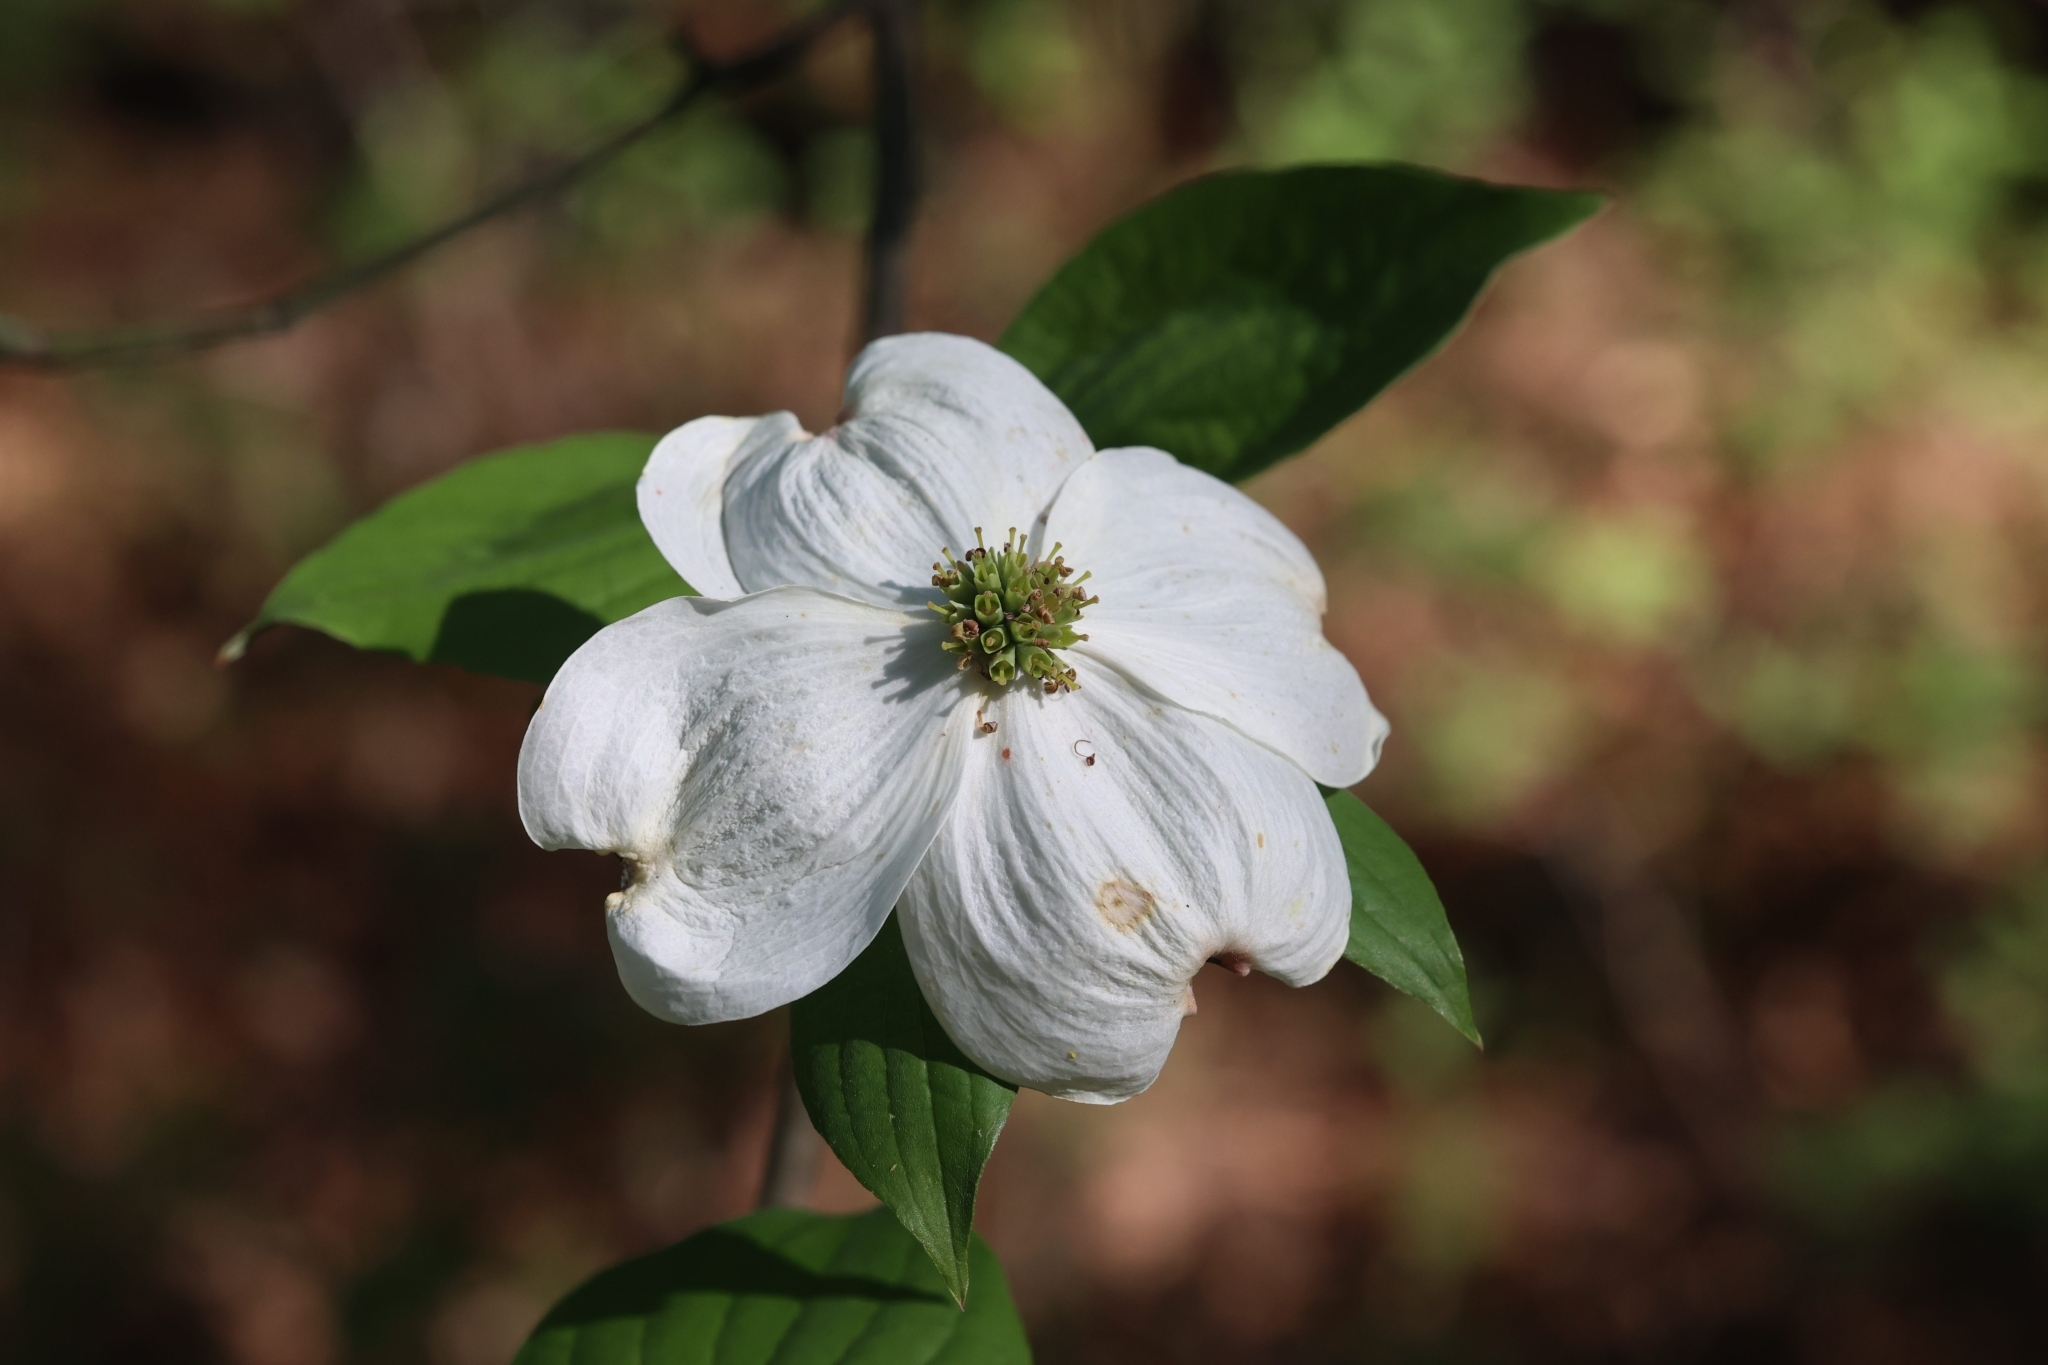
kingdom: Plantae
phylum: Tracheophyta
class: Magnoliopsida
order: Cornales
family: Cornaceae
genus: Cornus
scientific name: Cornus florida
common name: Flowering dogwood
